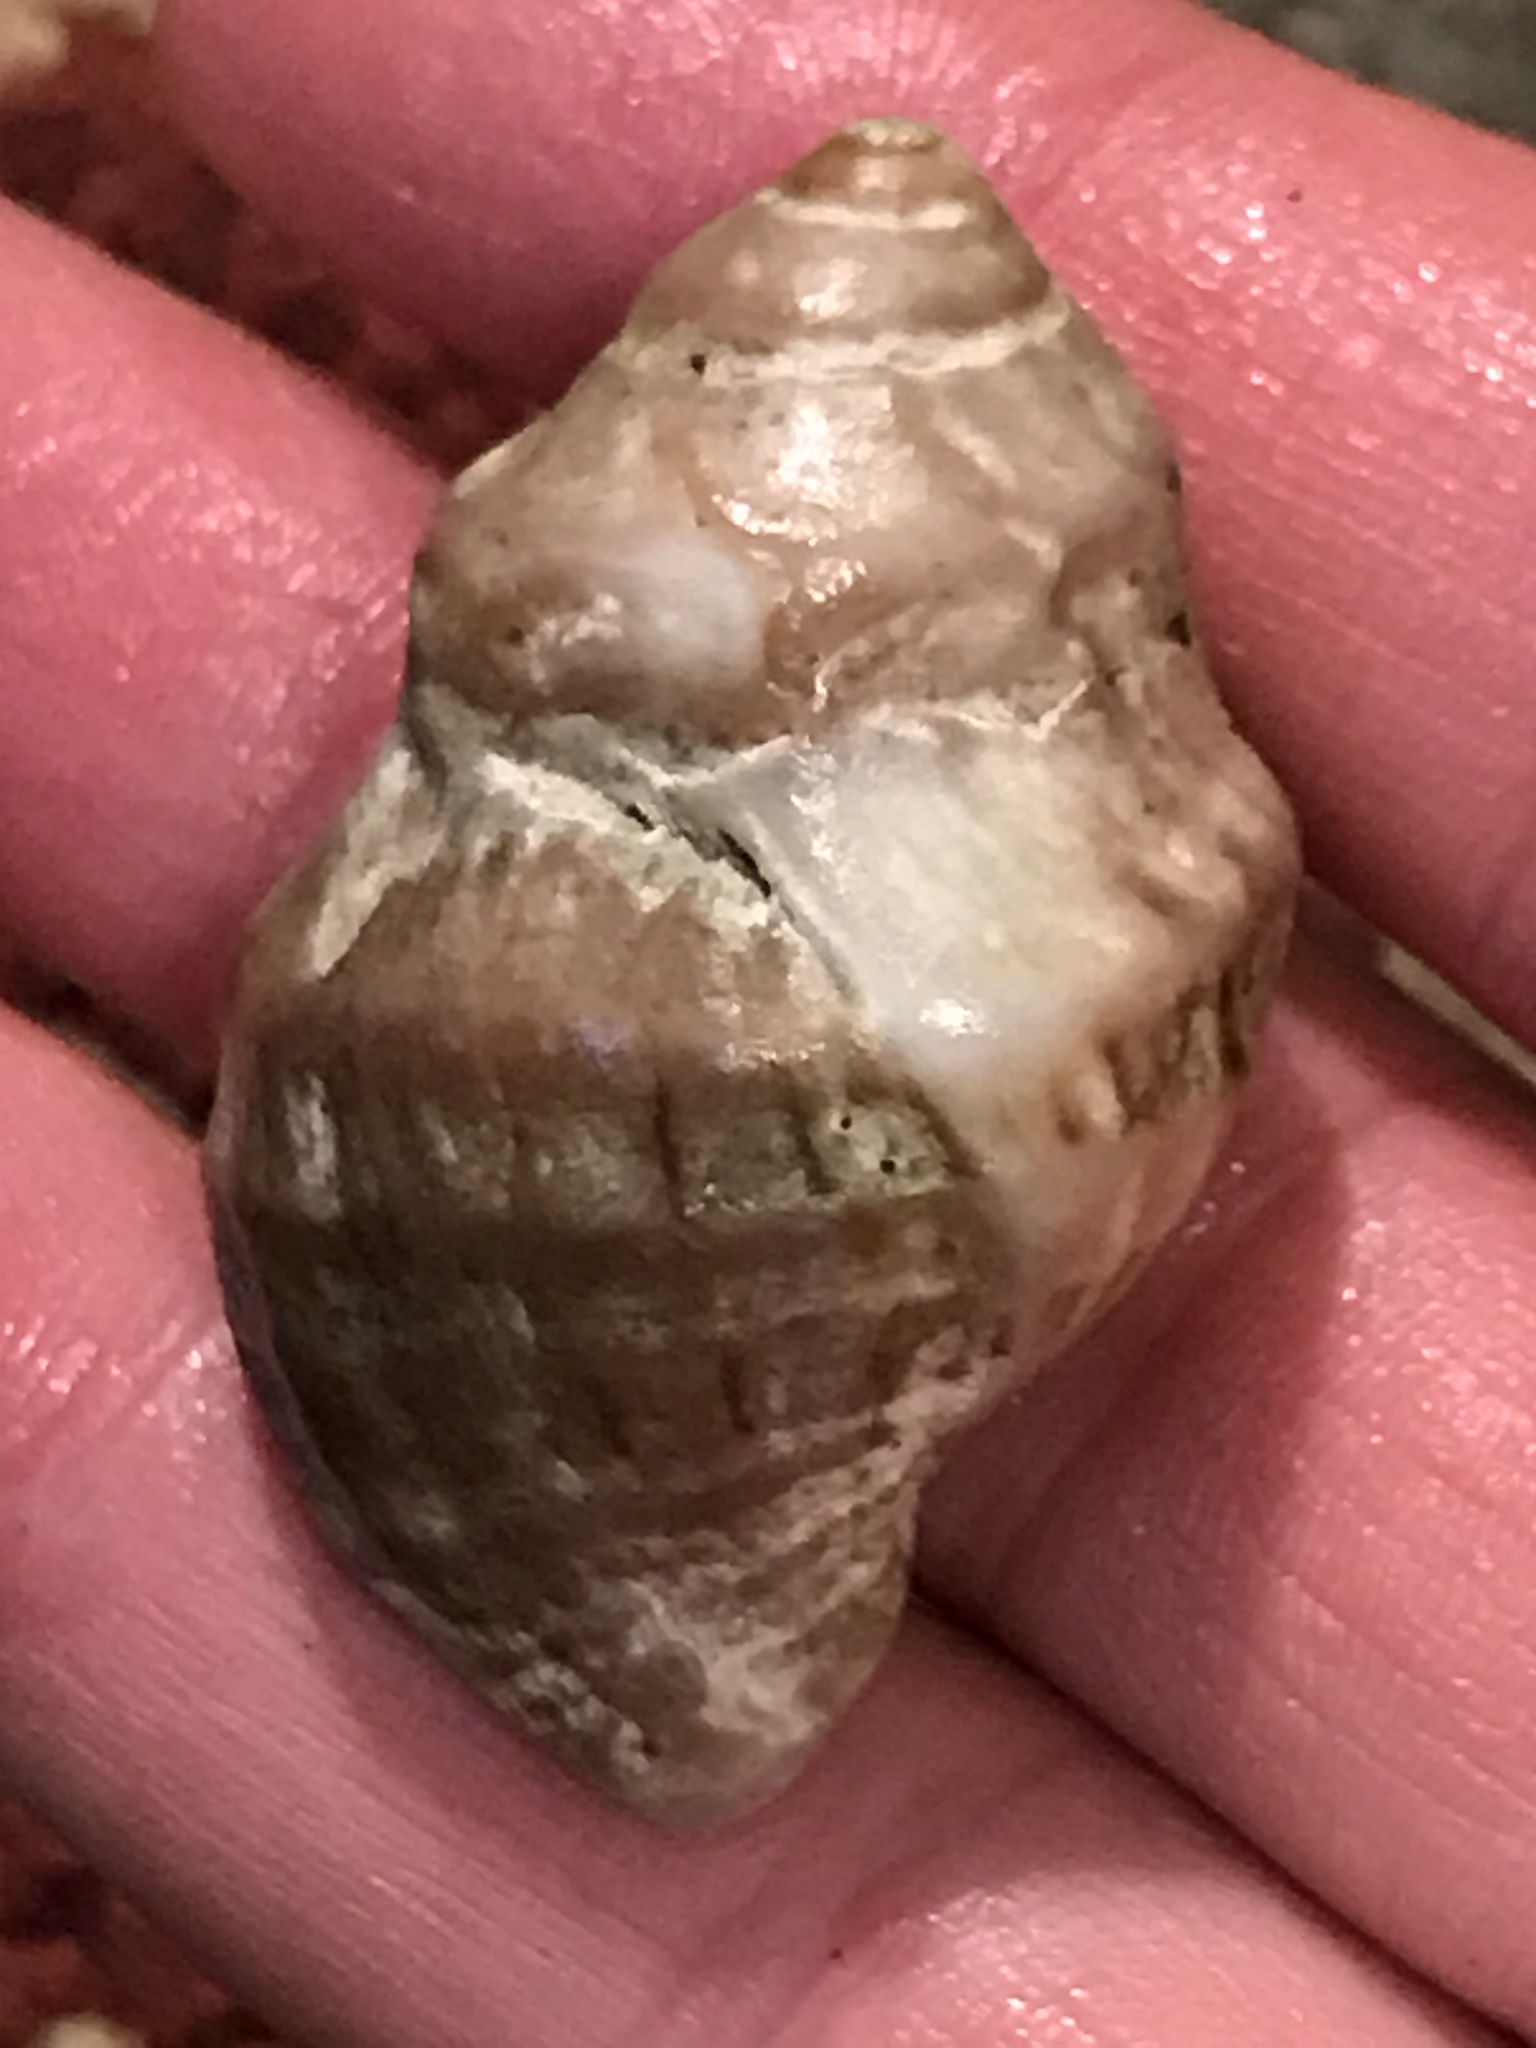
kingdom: Animalia
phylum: Mollusca
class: Gastropoda
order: Neogastropoda
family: Muricidae
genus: Nucella
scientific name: Nucella lamellosa
